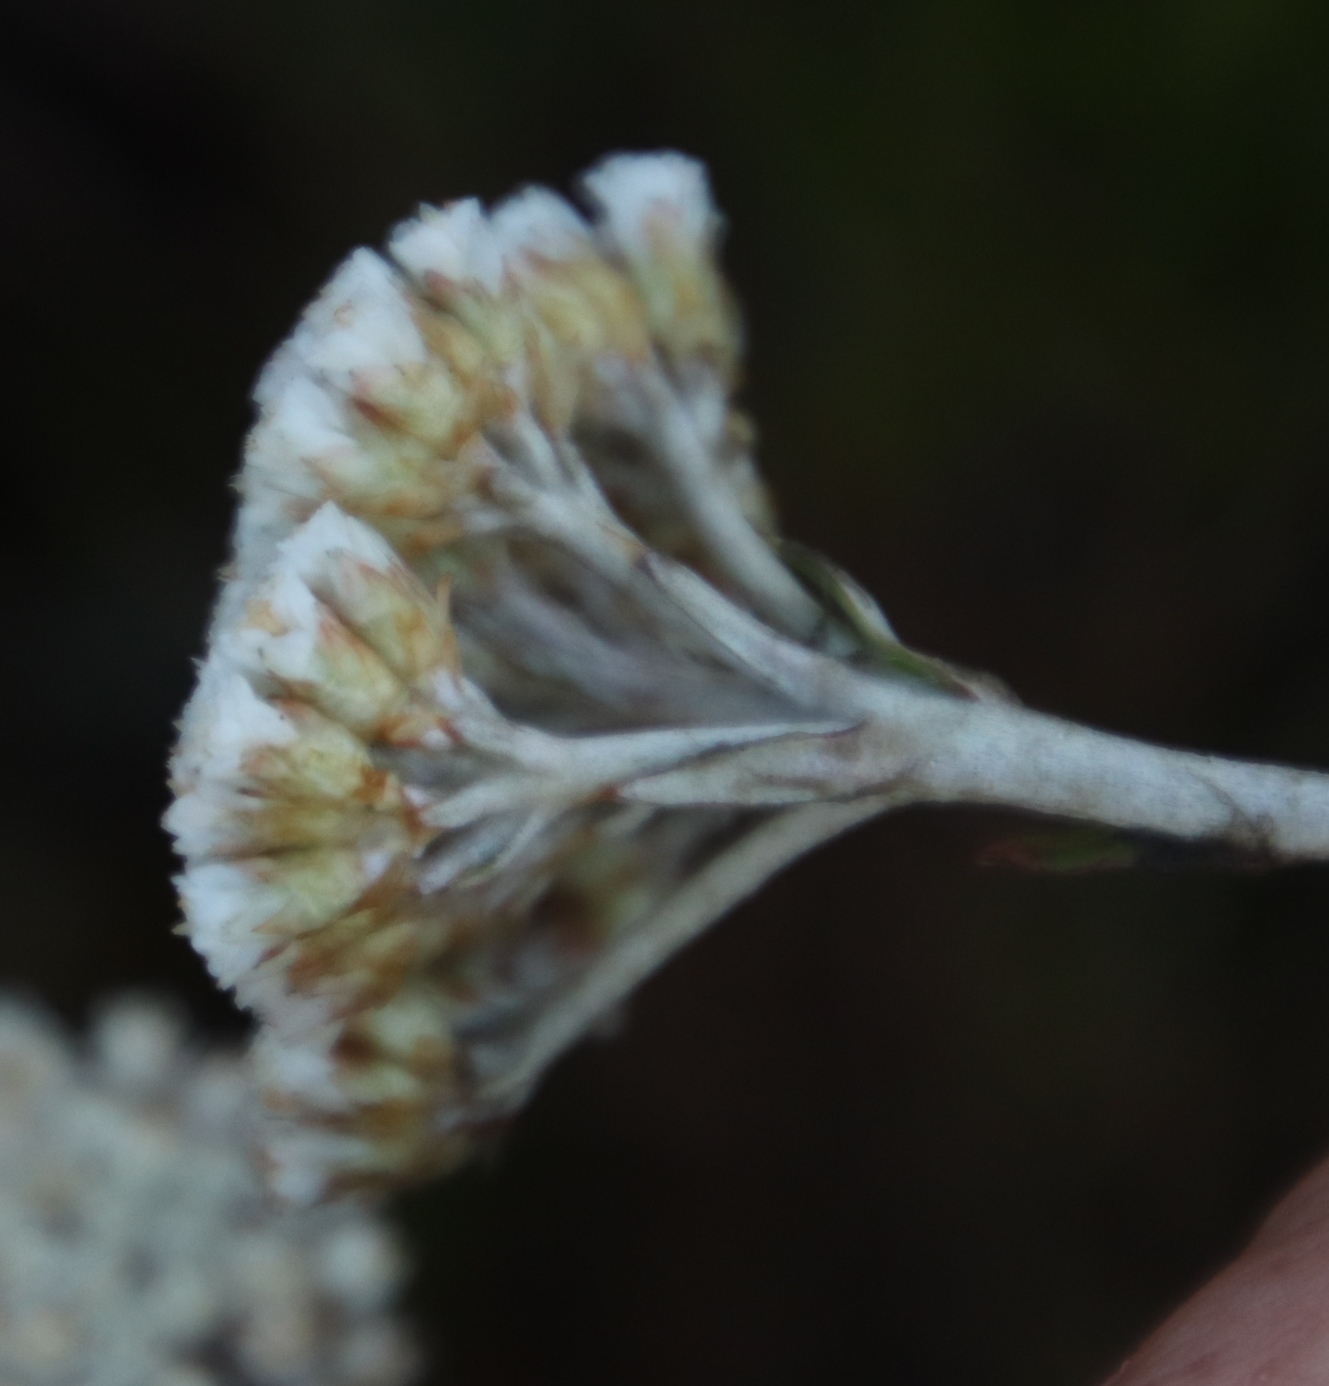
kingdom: Plantae
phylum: Tracheophyta
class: Magnoliopsida
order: Asterales
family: Asteraceae
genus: Anaxeton
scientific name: Anaxeton arborescens
